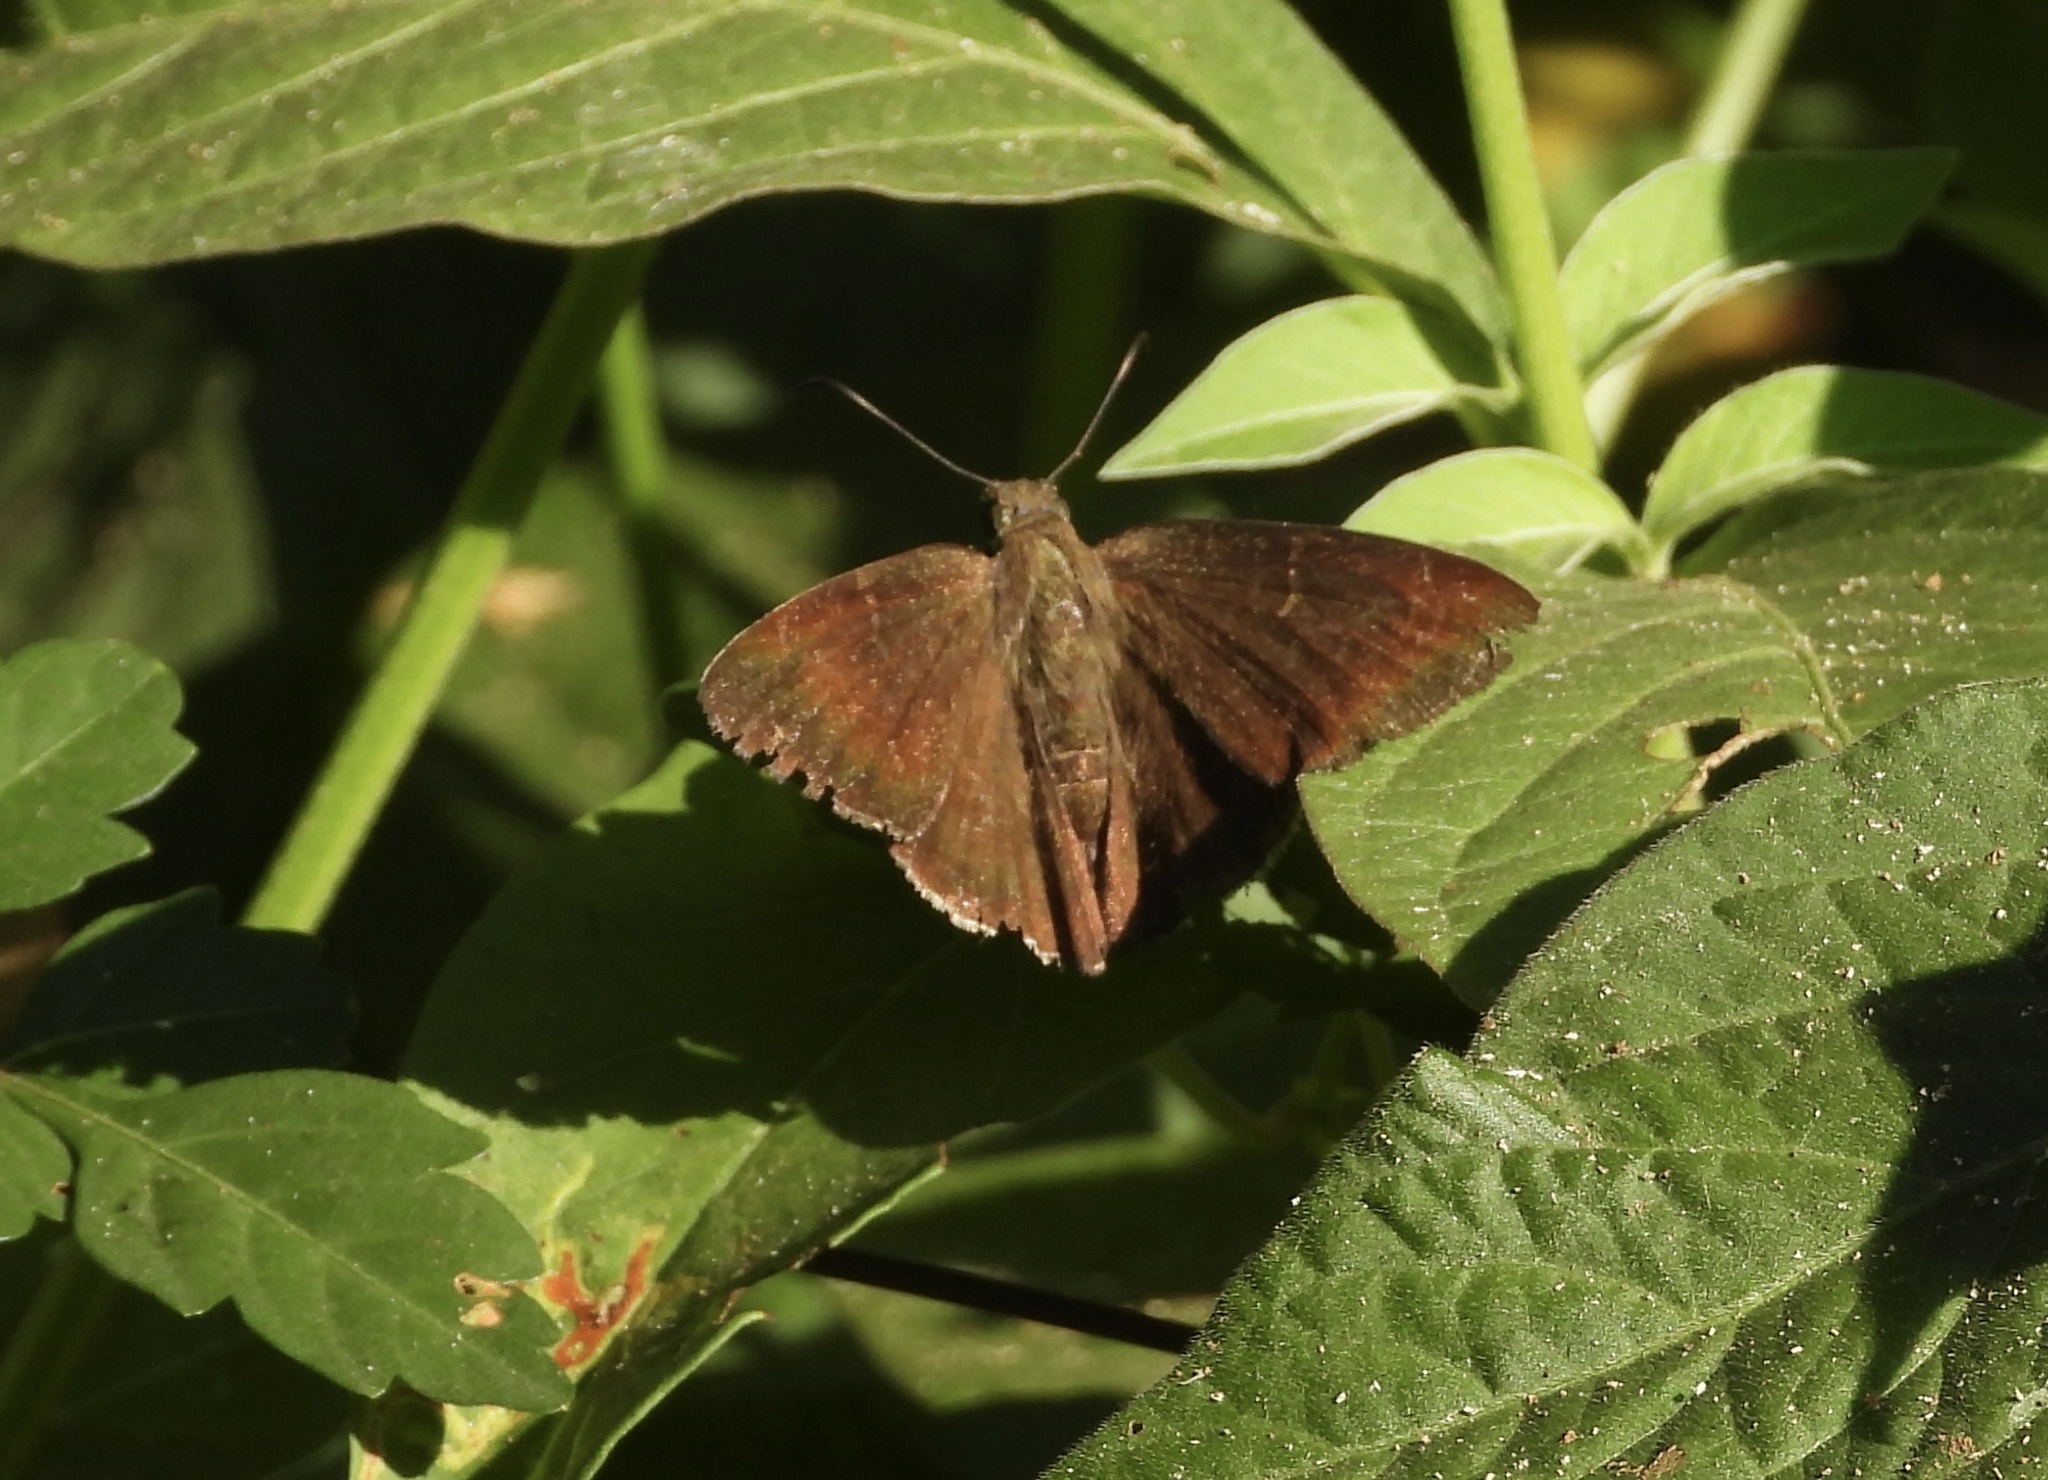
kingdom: Animalia
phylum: Arthropoda
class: Insecta
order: Lepidoptera
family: Hesperiidae
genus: Autochton
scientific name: Autochton
